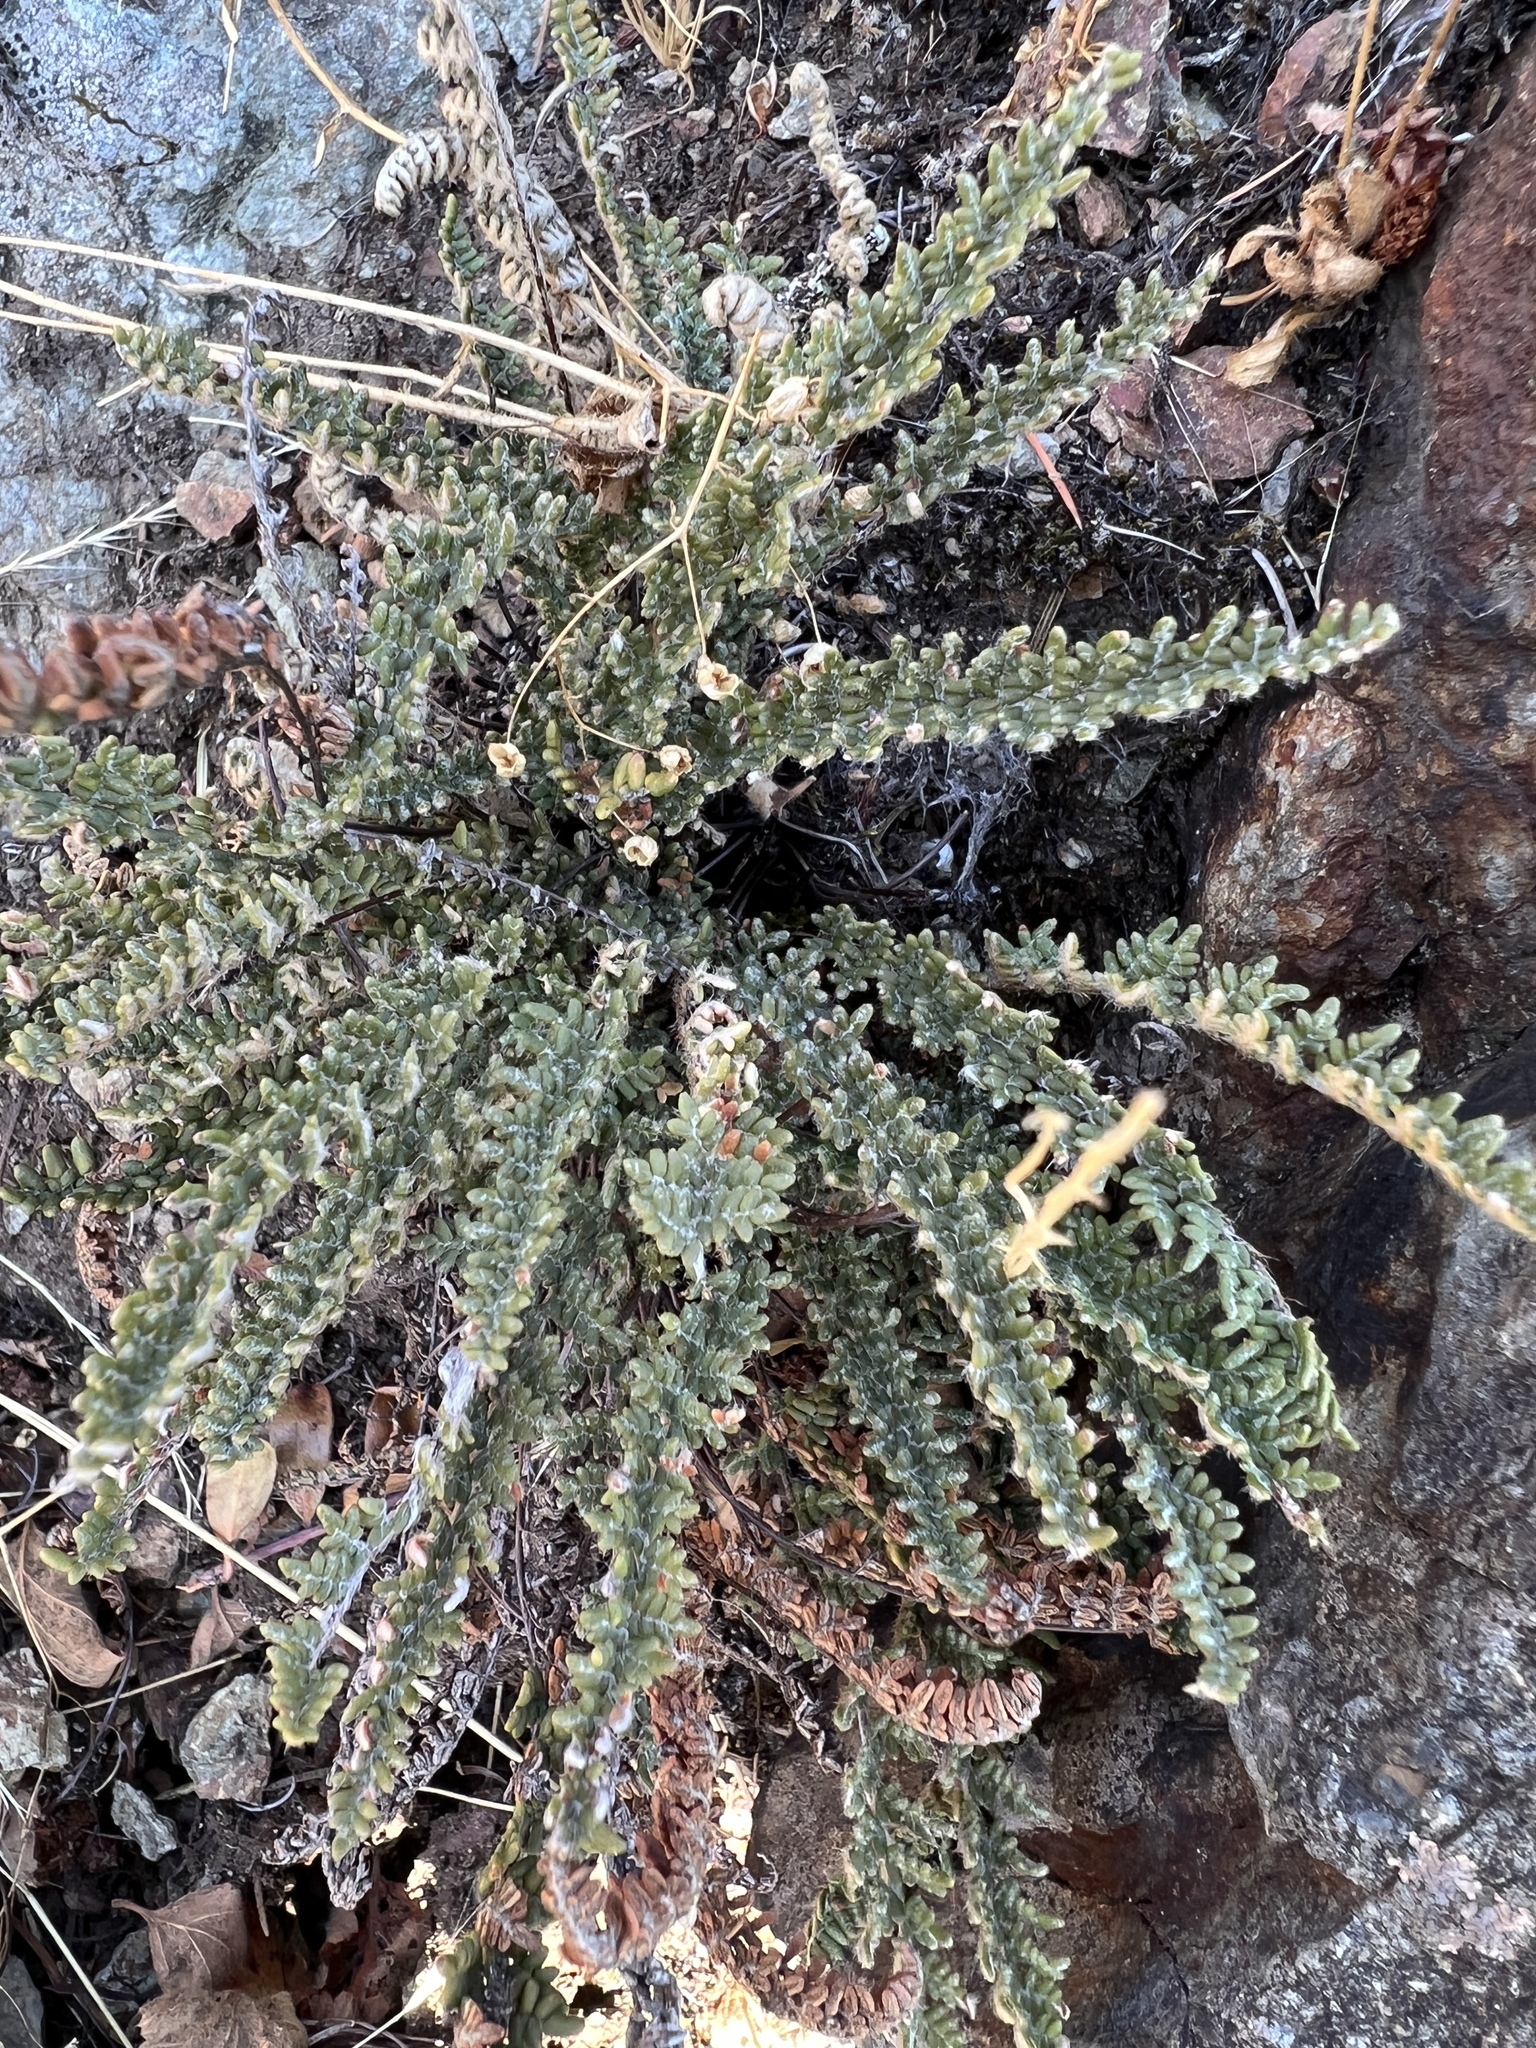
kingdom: Plantae
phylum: Tracheophyta
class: Polypodiopsida
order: Polypodiales
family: Pteridaceae
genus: Myriopteris
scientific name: Myriopteris gracillima
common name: Lace fern
